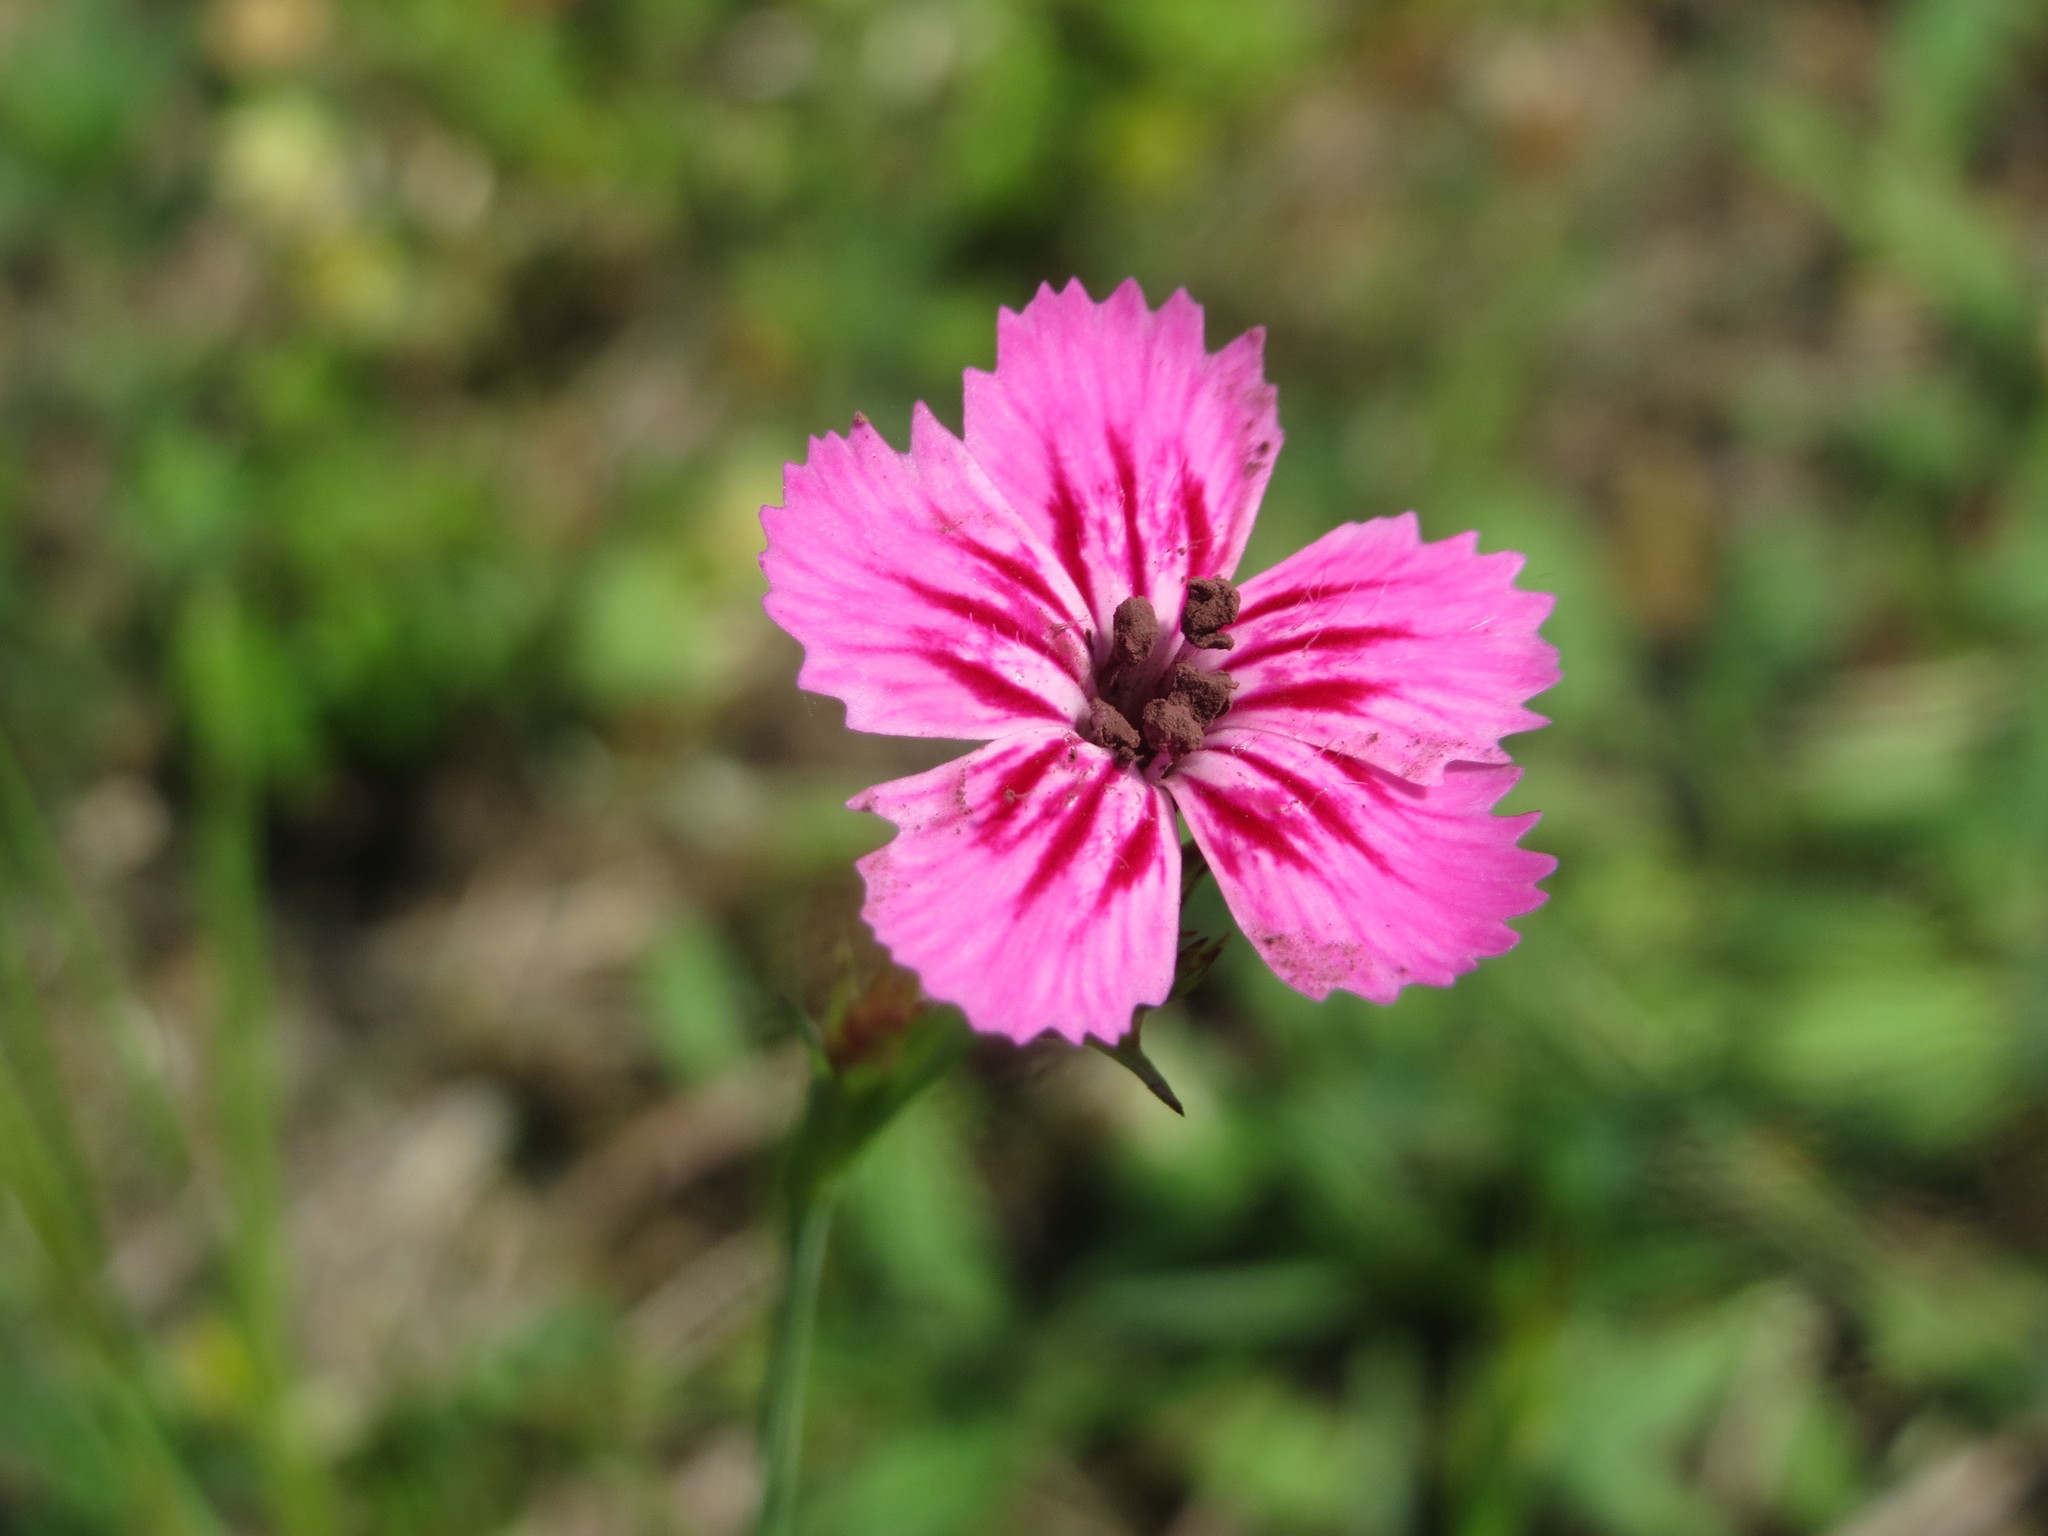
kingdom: Plantae
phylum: Tracheophyta
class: Magnoliopsida
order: Caryophyllales
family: Caryophyllaceae
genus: Dianthus
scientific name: Dianthus carthusianorum
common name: Carthusian pink
